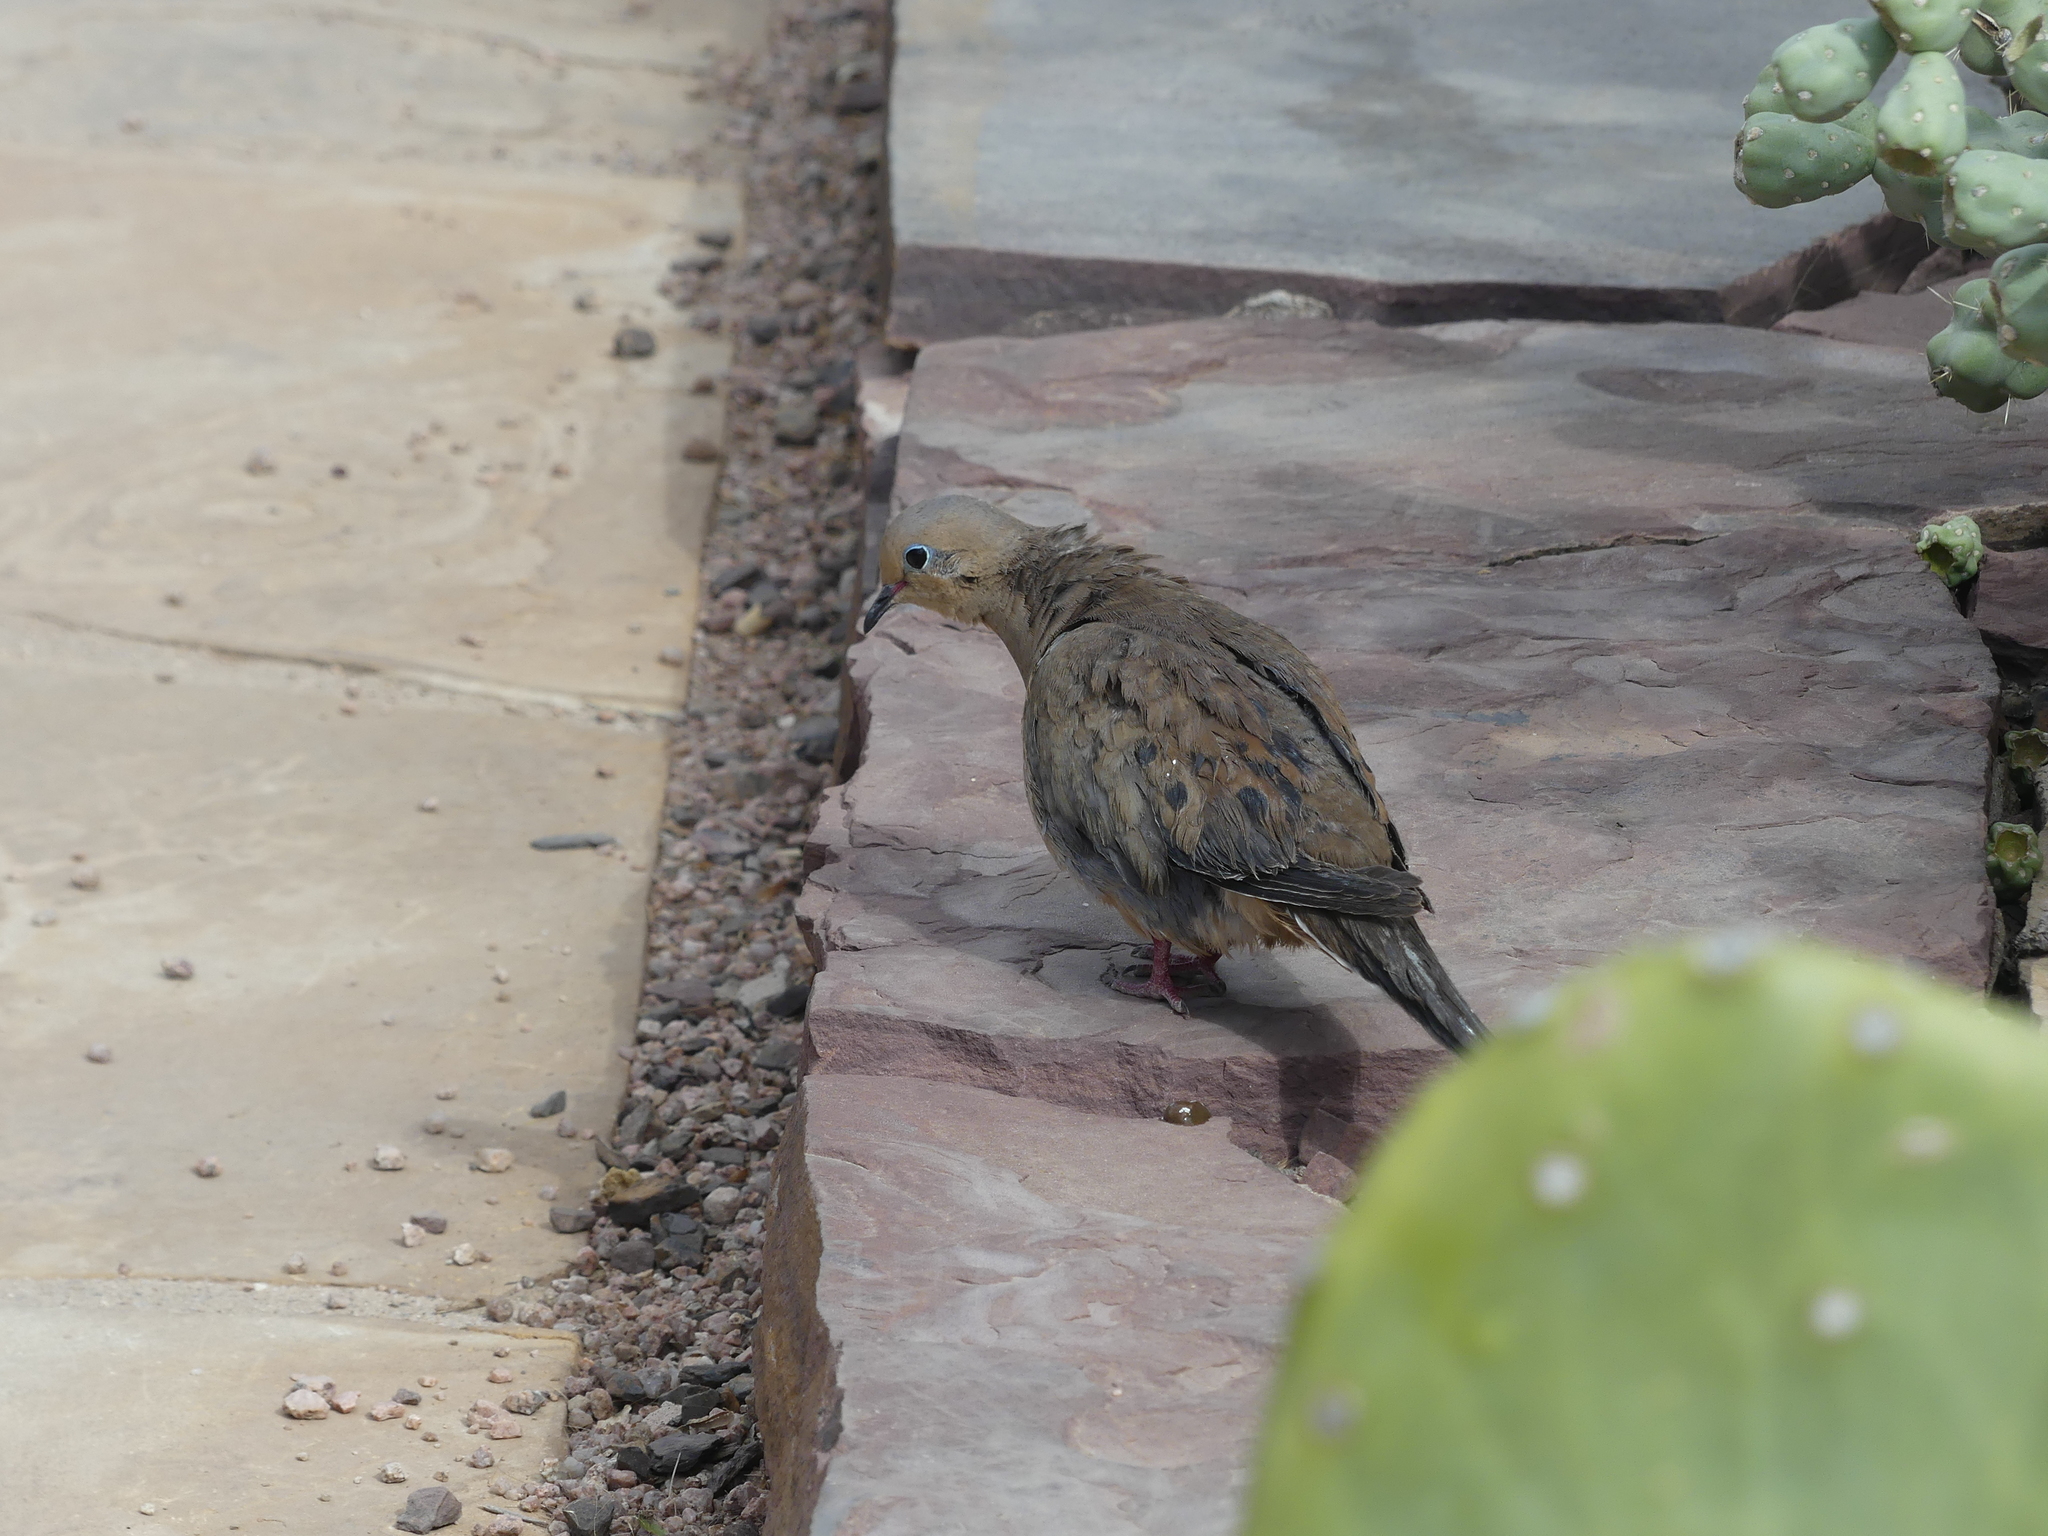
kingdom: Animalia
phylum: Chordata
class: Aves
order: Columbiformes
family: Columbidae
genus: Zenaida
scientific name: Zenaida macroura
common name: Mourning dove
